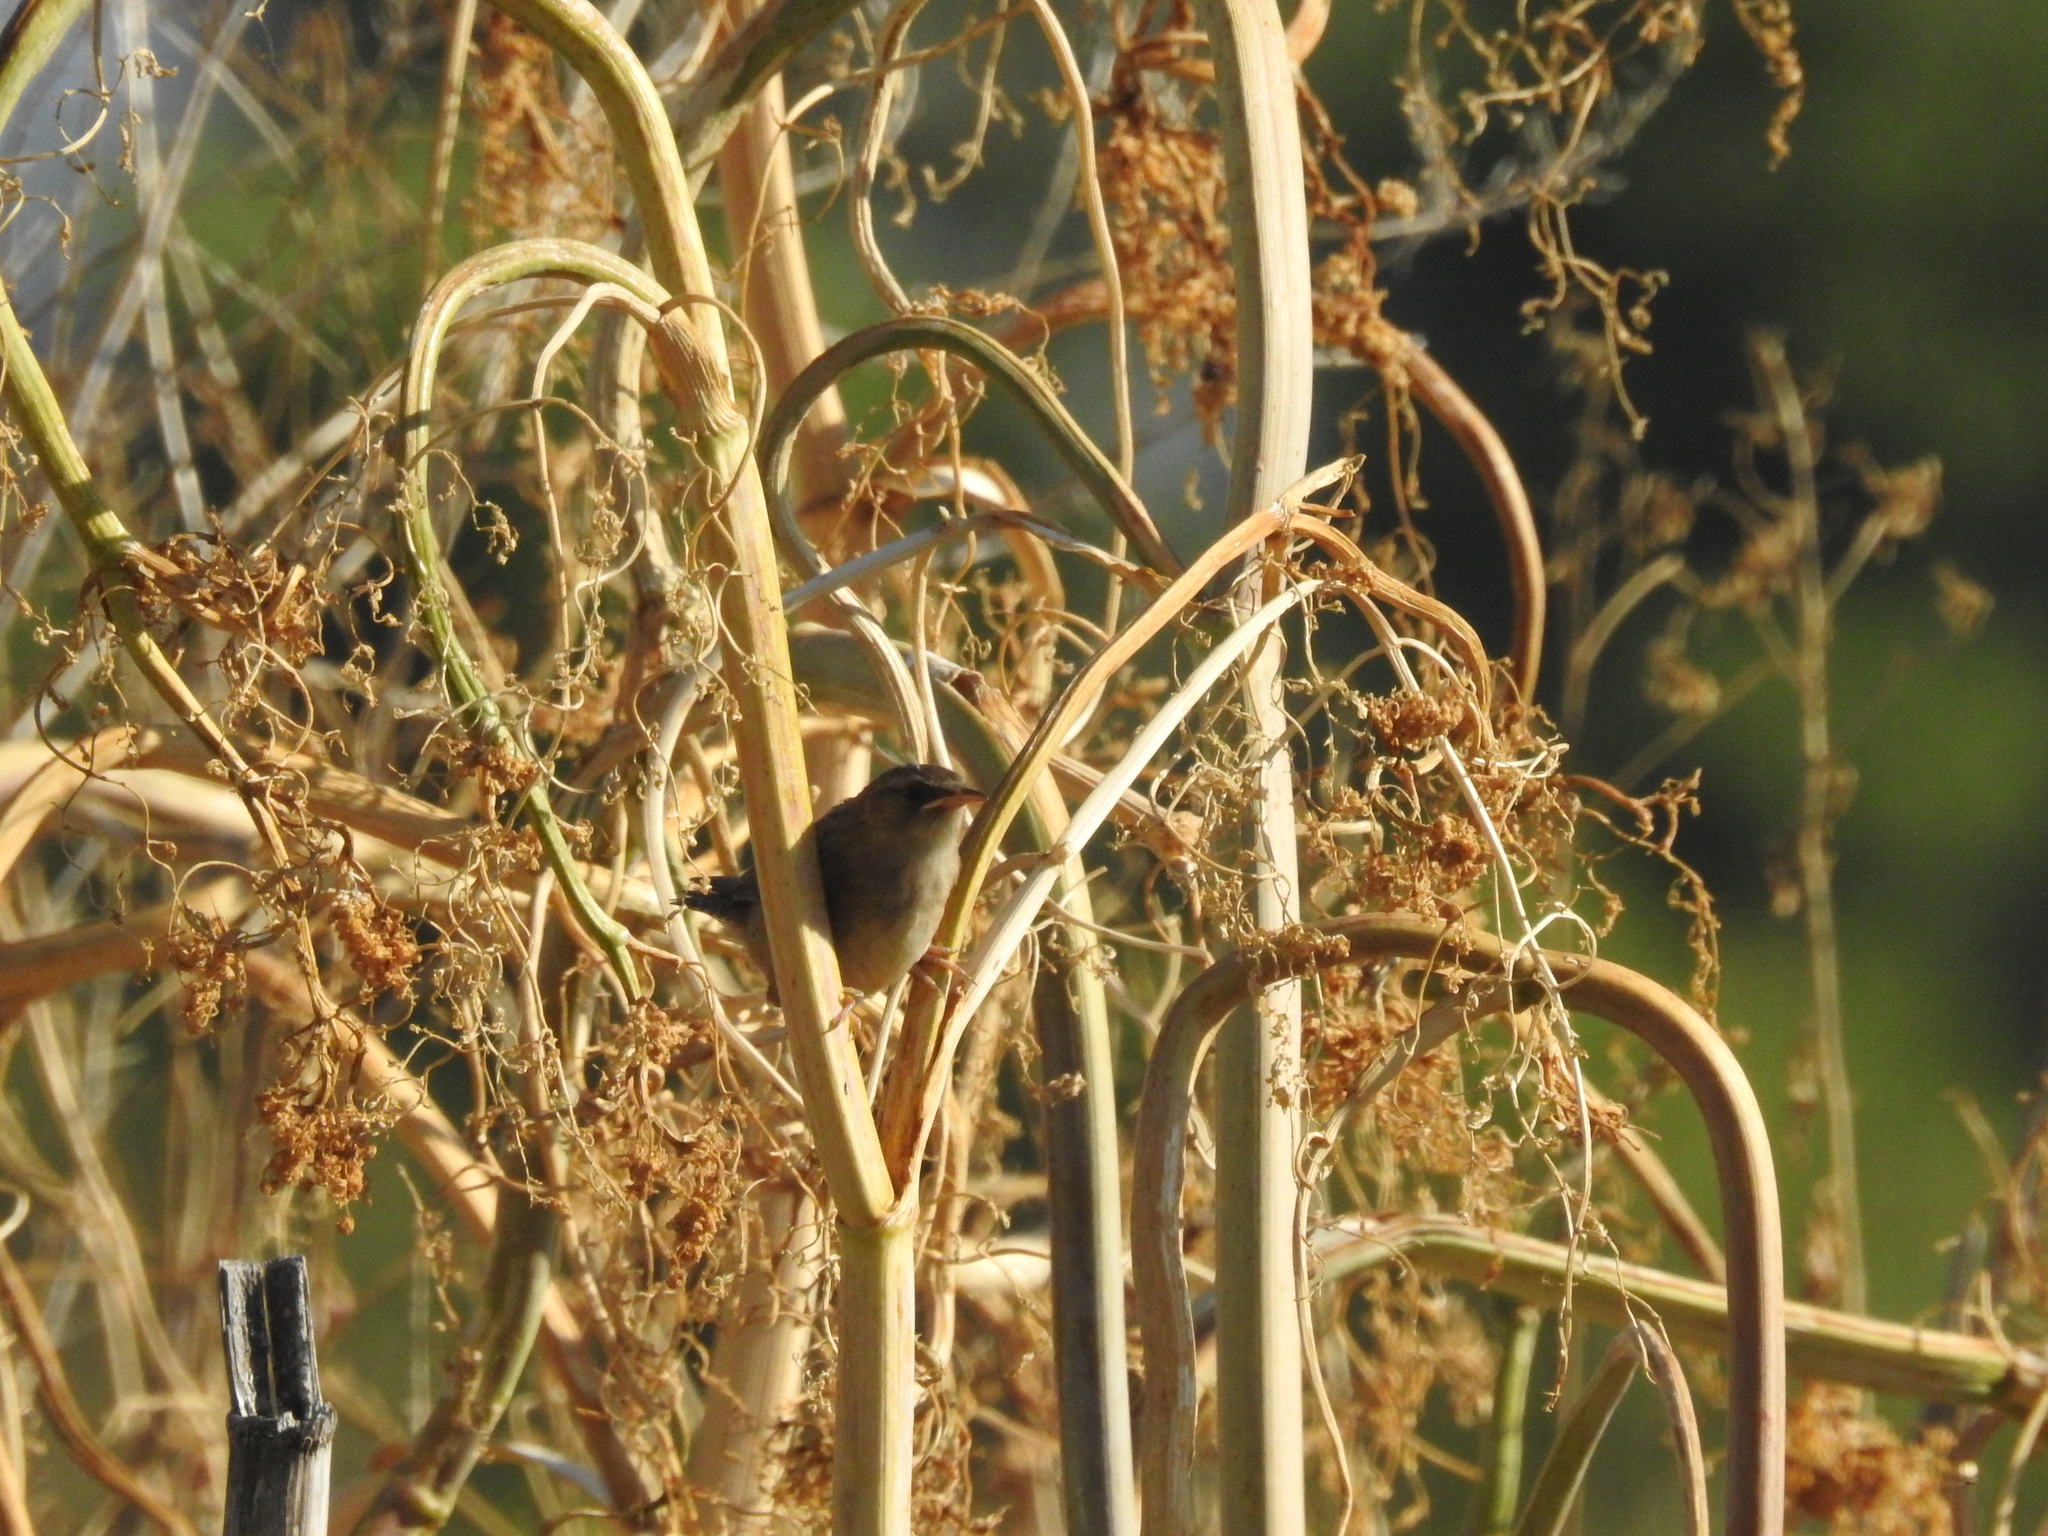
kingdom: Animalia
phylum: Chordata
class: Aves
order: Passeriformes
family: Troglodytidae
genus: Cistothorus
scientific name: Cistothorus palustris
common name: Marsh wren
